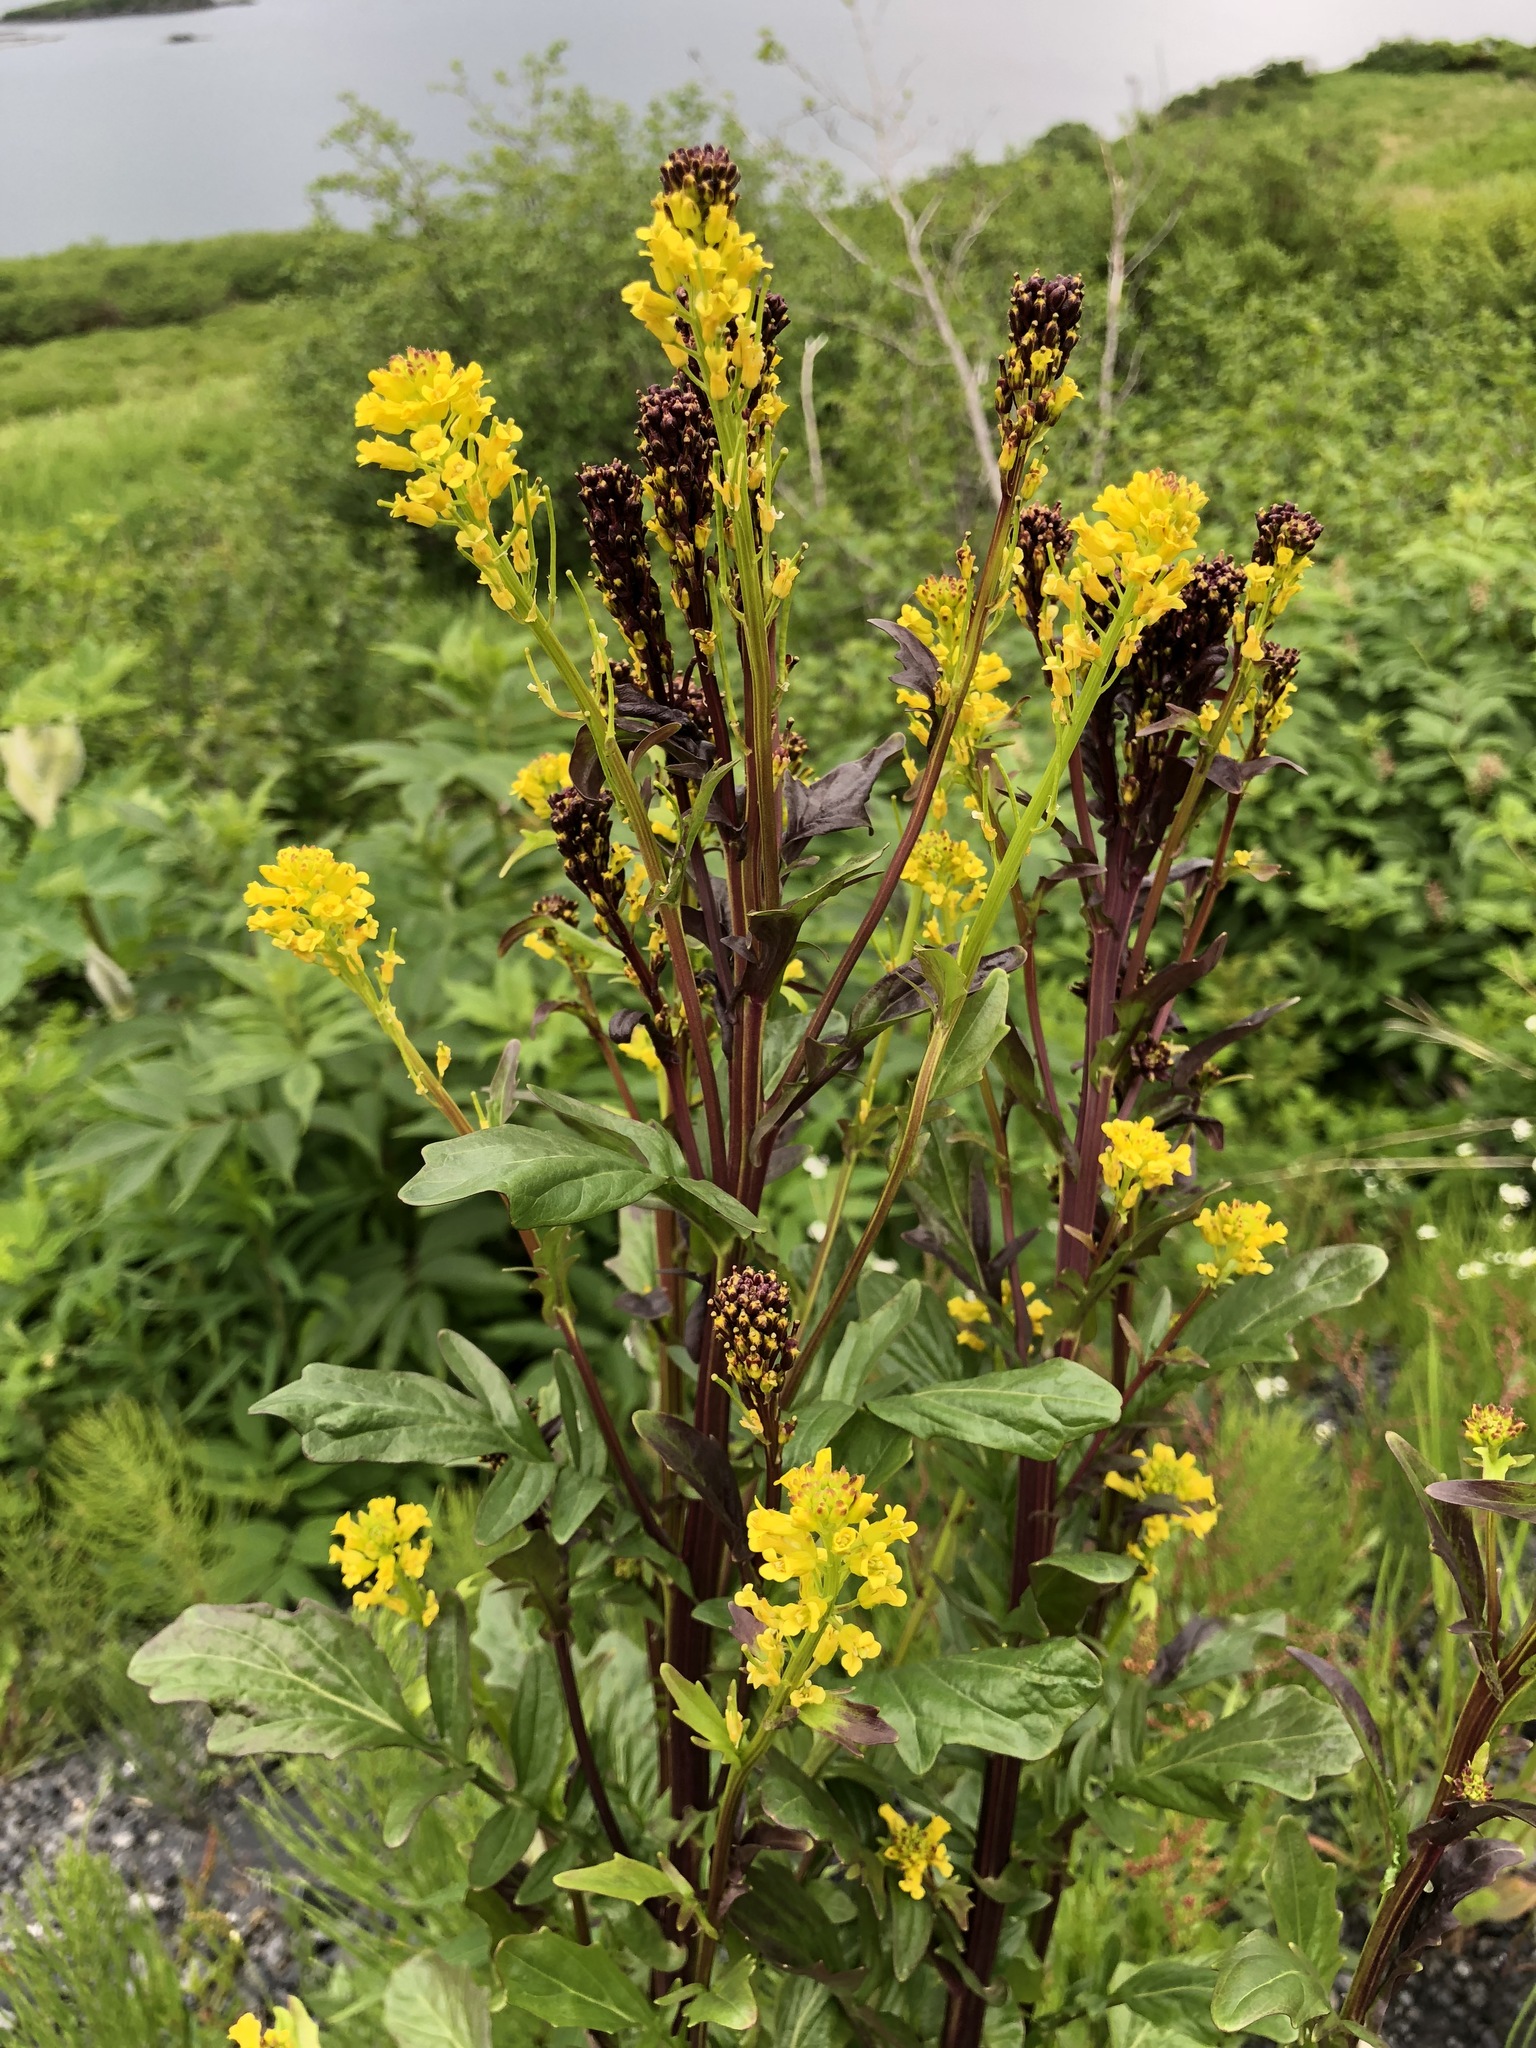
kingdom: Plantae
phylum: Tracheophyta
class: Magnoliopsida
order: Brassicales
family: Brassicaceae
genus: Barbarea
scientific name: Barbarea orthoceras
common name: American wintercress
